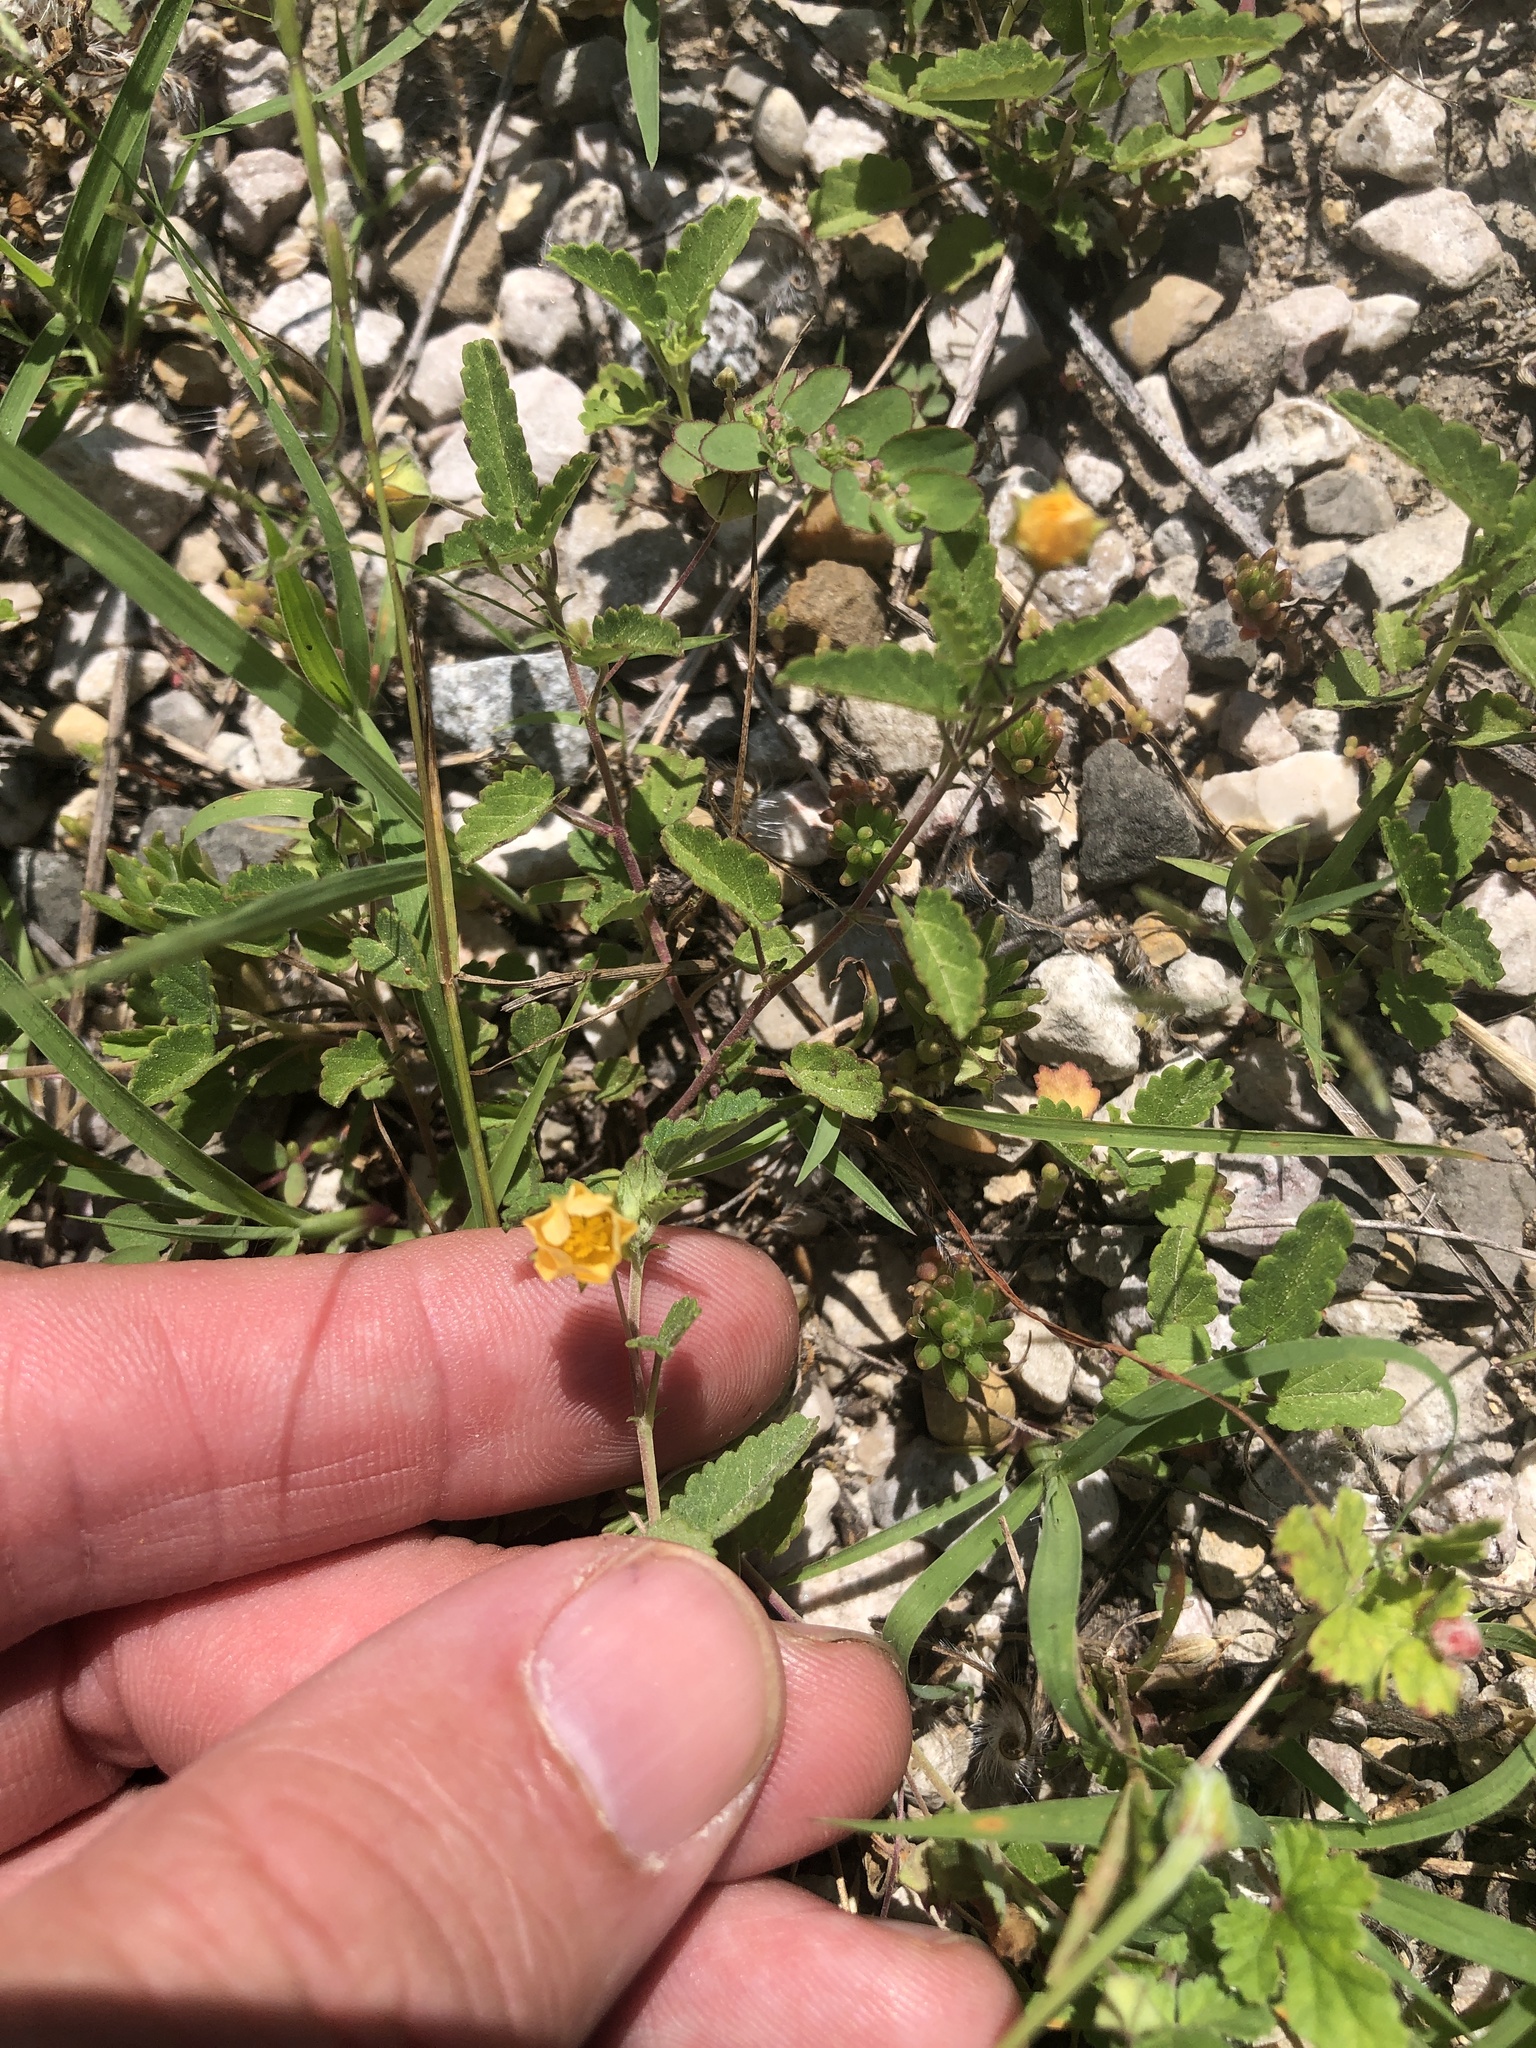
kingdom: Plantae
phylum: Tracheophyta
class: Magnoliopsida
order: Malvales
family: Malvaceae
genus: Sida
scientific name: Sida abutilifolia
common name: Spreading fanpetals
